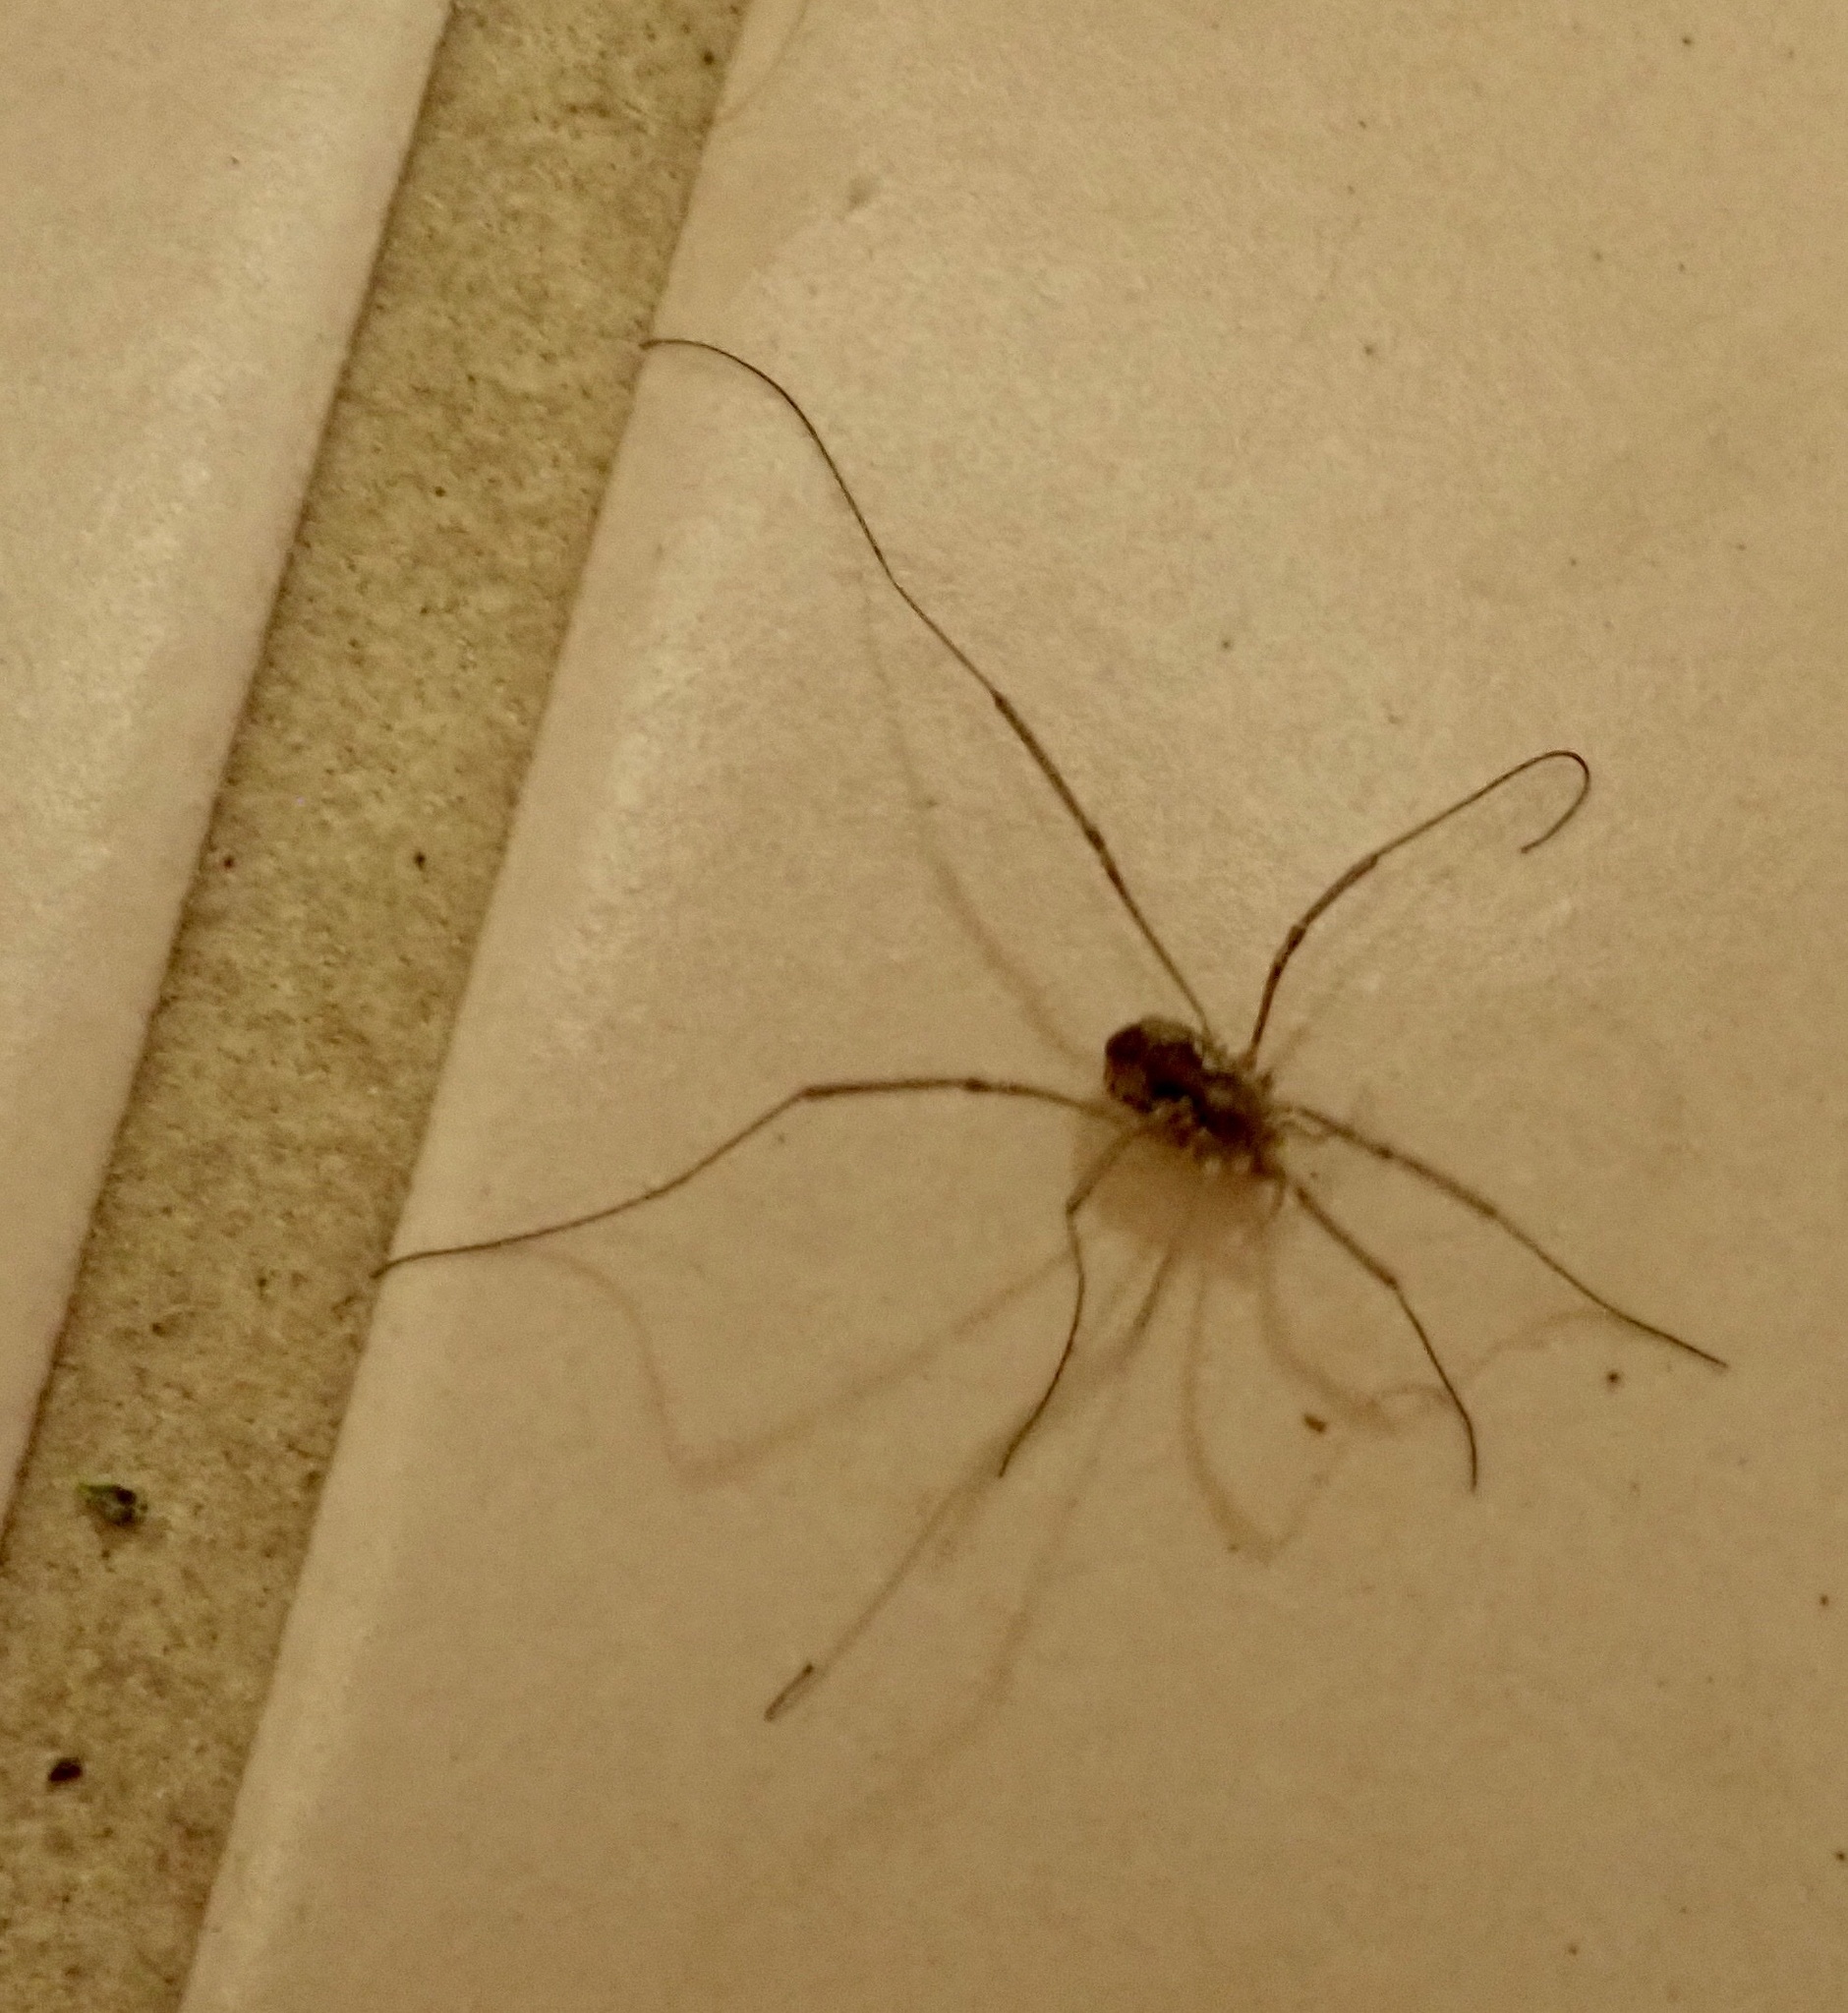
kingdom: Animalia
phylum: Arthropoda
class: Arachnida
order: Opiliones
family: Phalangiidae
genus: Phalangium
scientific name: Phalangium opilio
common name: Daddy longleg
